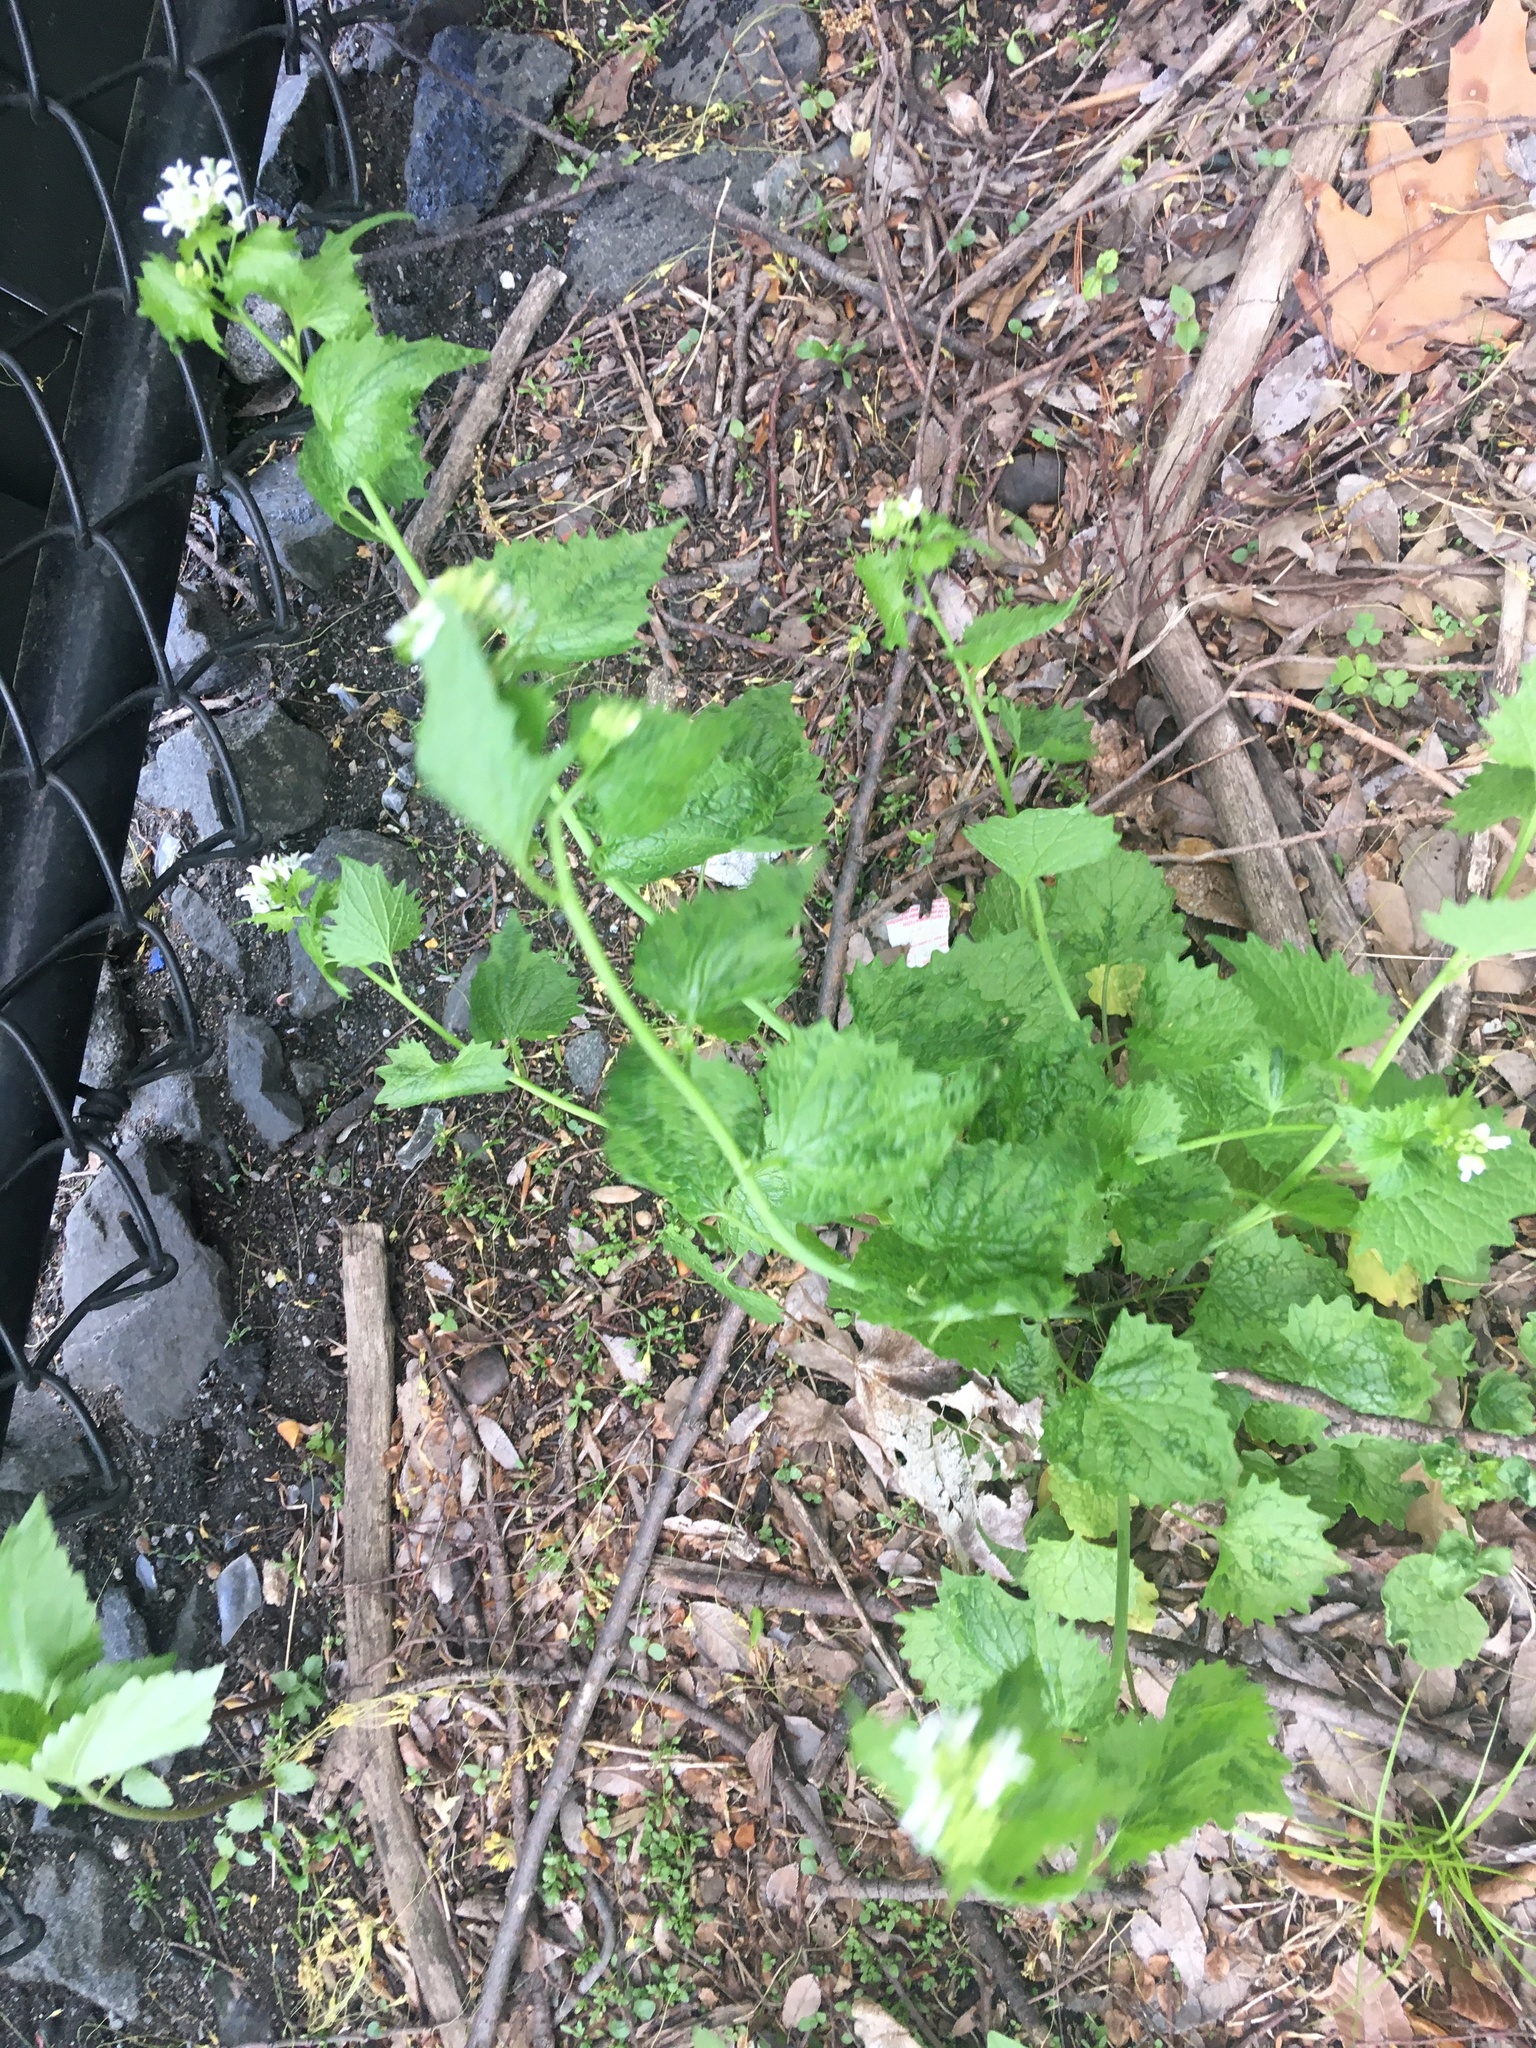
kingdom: Plantae
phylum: Tracheophyta
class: Magnoliopsida
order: Brassicales
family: Brassicaceae
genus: Alliaria
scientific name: Alliaria petiolata
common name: Garlic mustard
